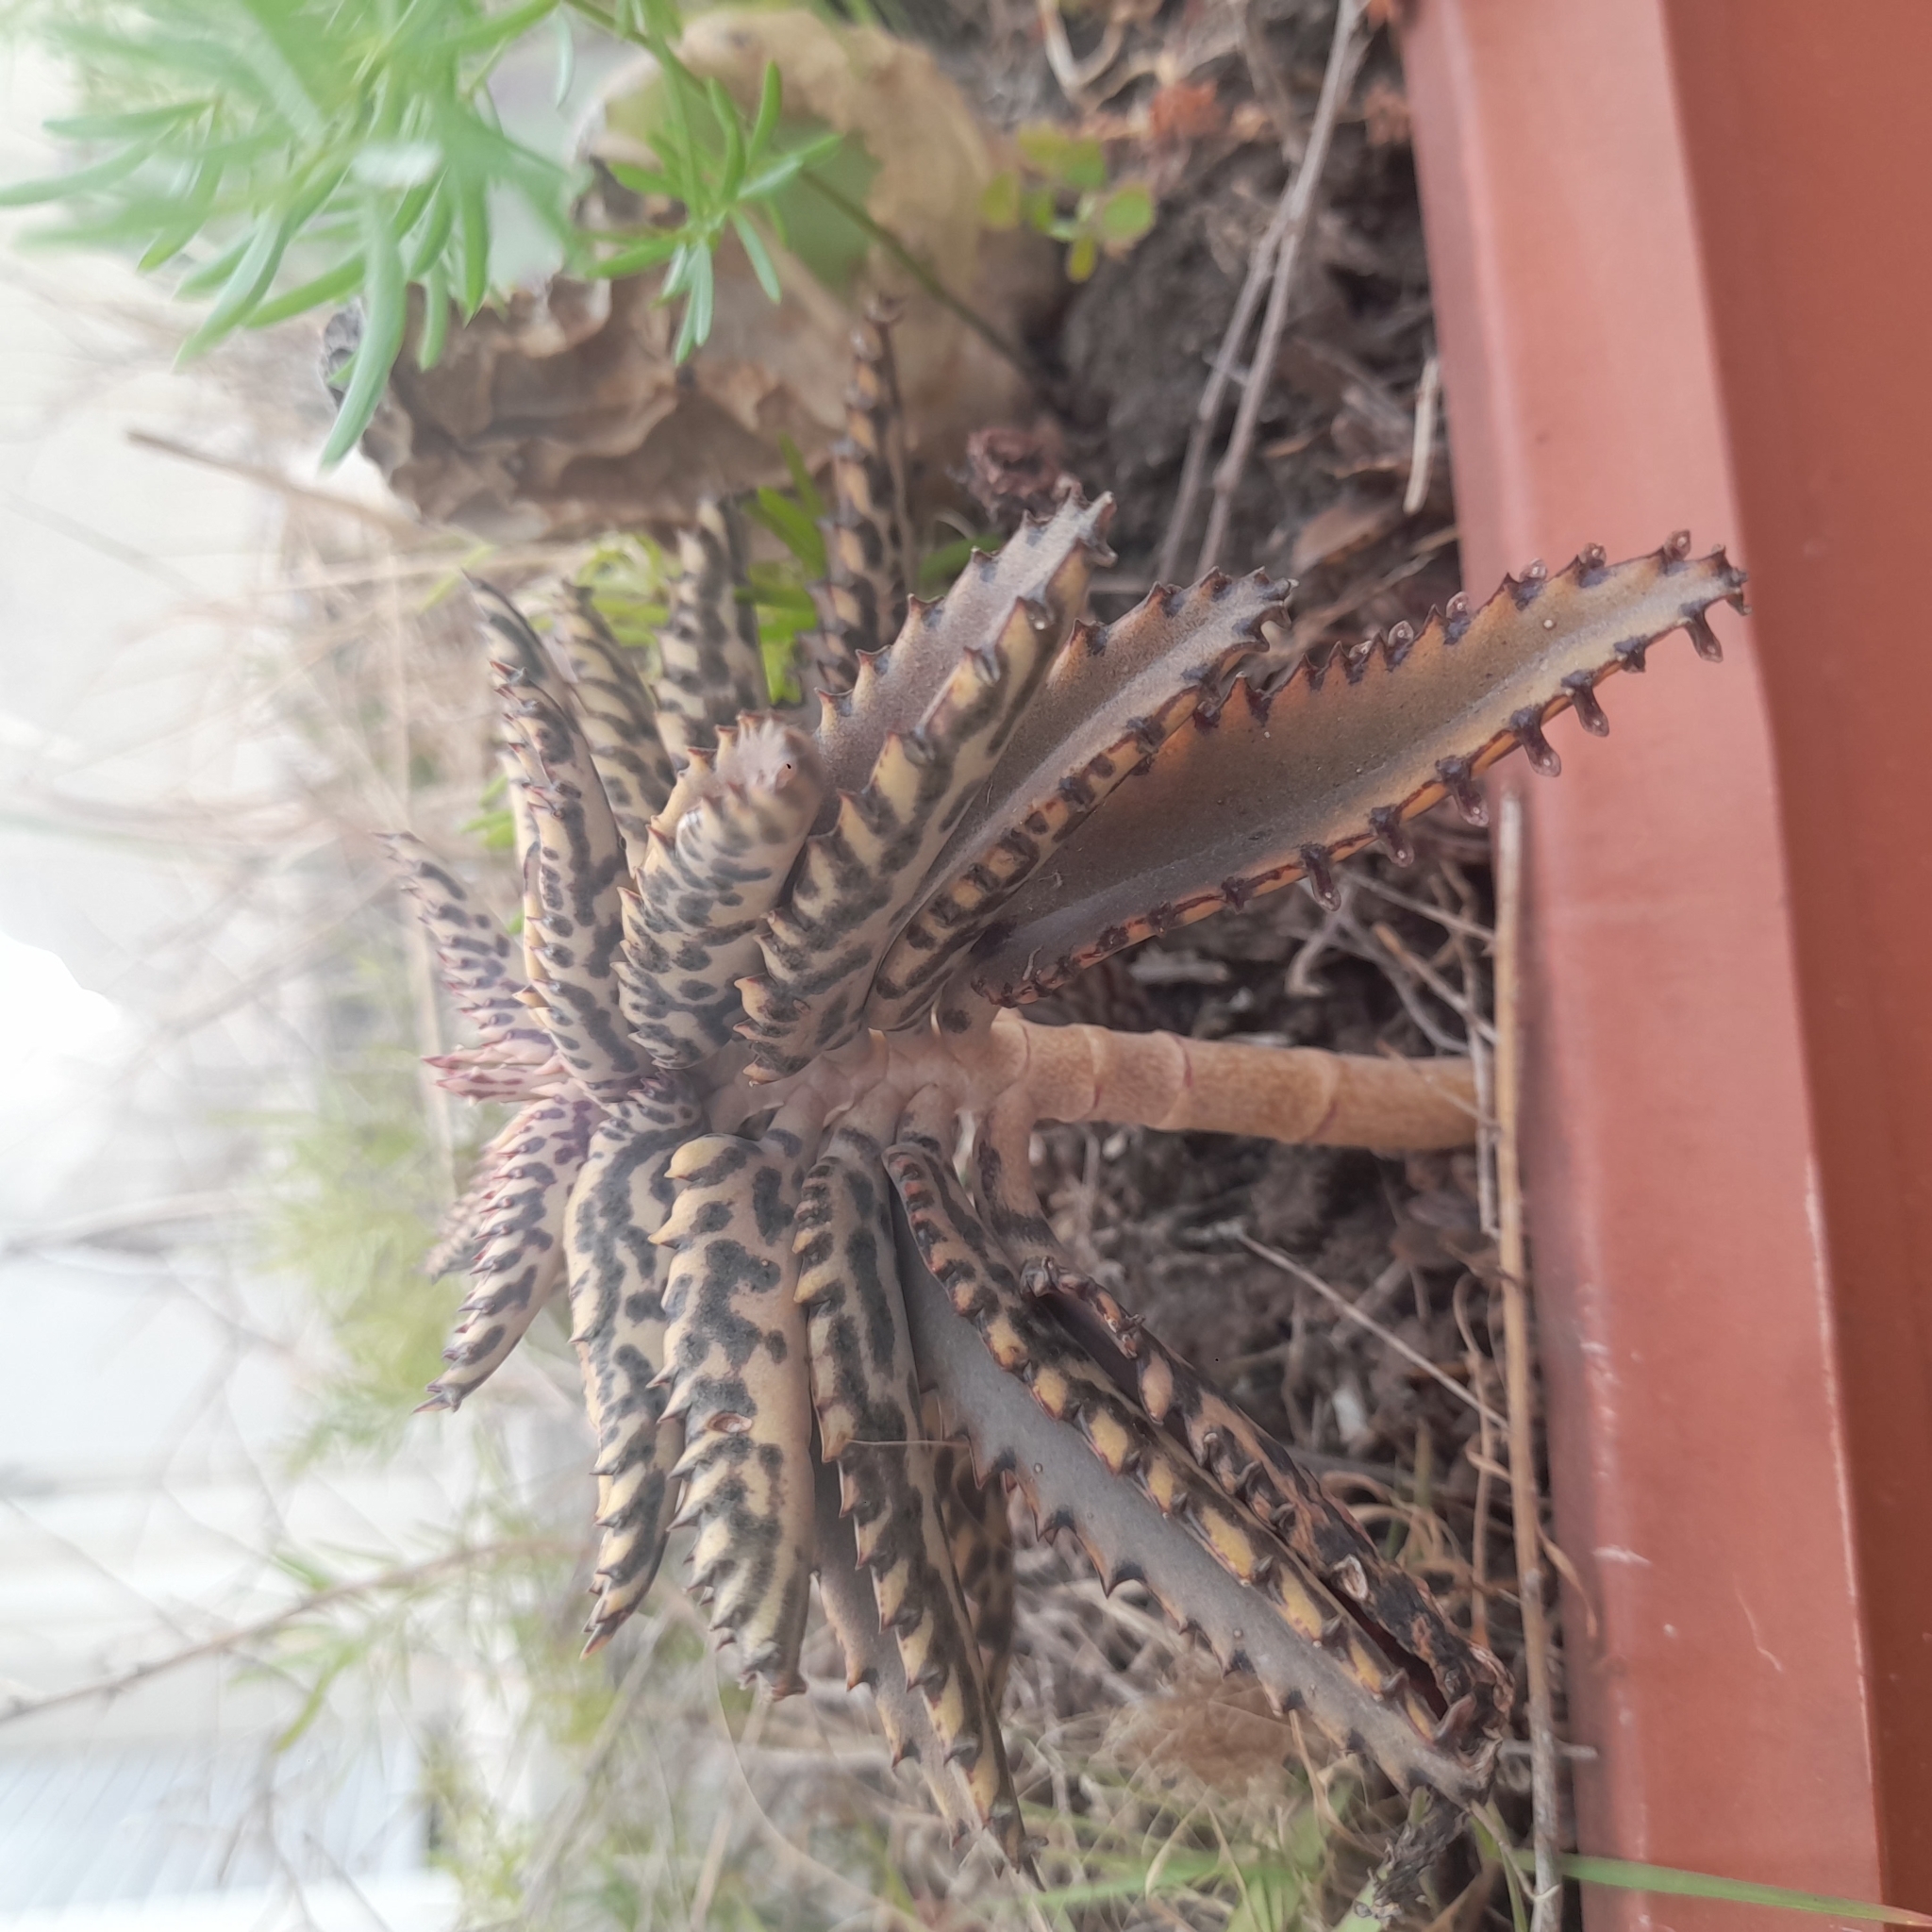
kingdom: Plantae
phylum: Tracheophyta
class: Magnoliopsida
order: Saxifragales
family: Crassulaceae
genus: Kalanchoe
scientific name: Kalanchoe houghtonii
